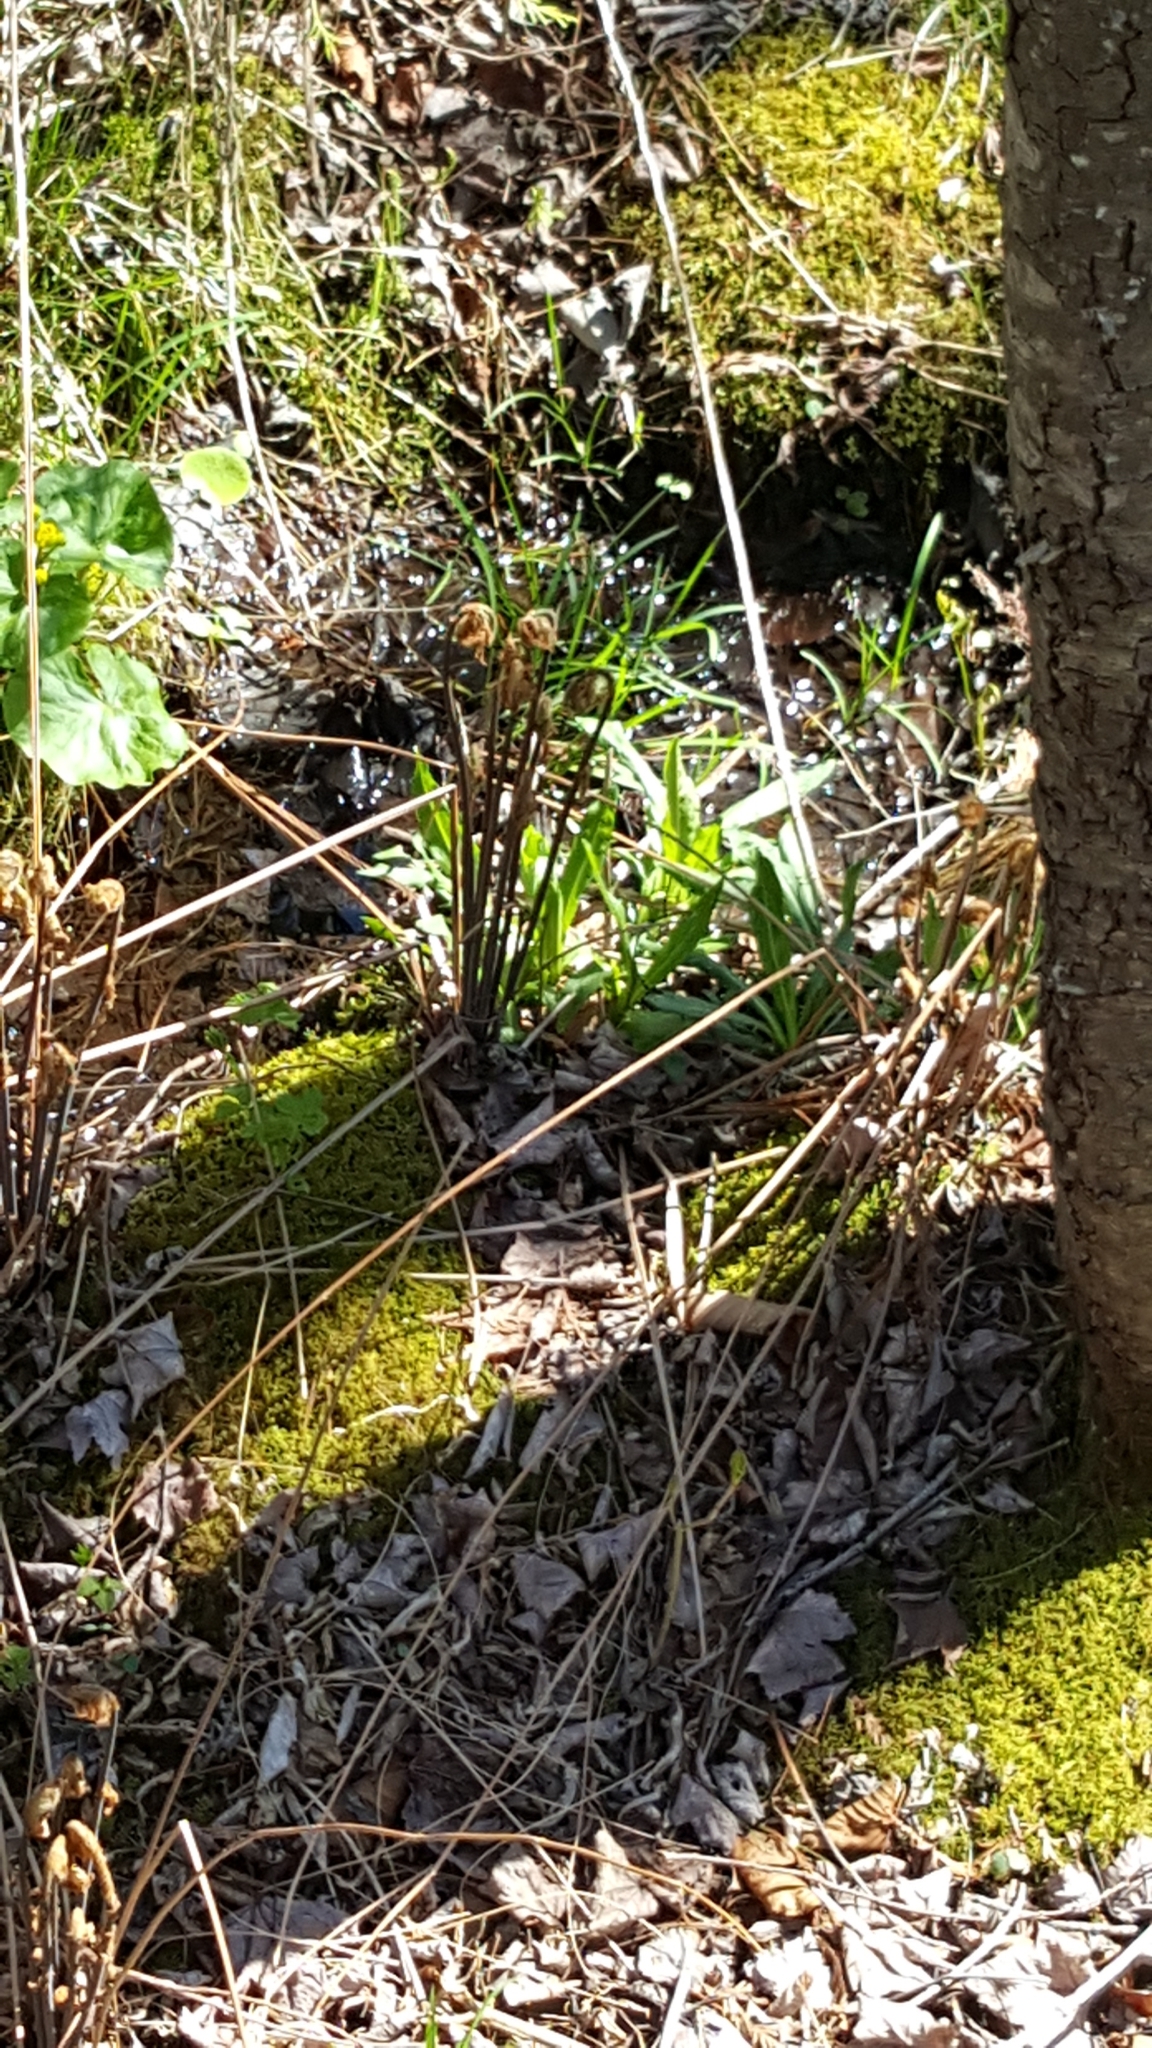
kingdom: Plantae
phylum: Tracheophyta
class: Polypodiopsida
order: Osmundales
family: Osmundaceae
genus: Osmunda
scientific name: Osmunda spectabilis
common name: American royal fern
